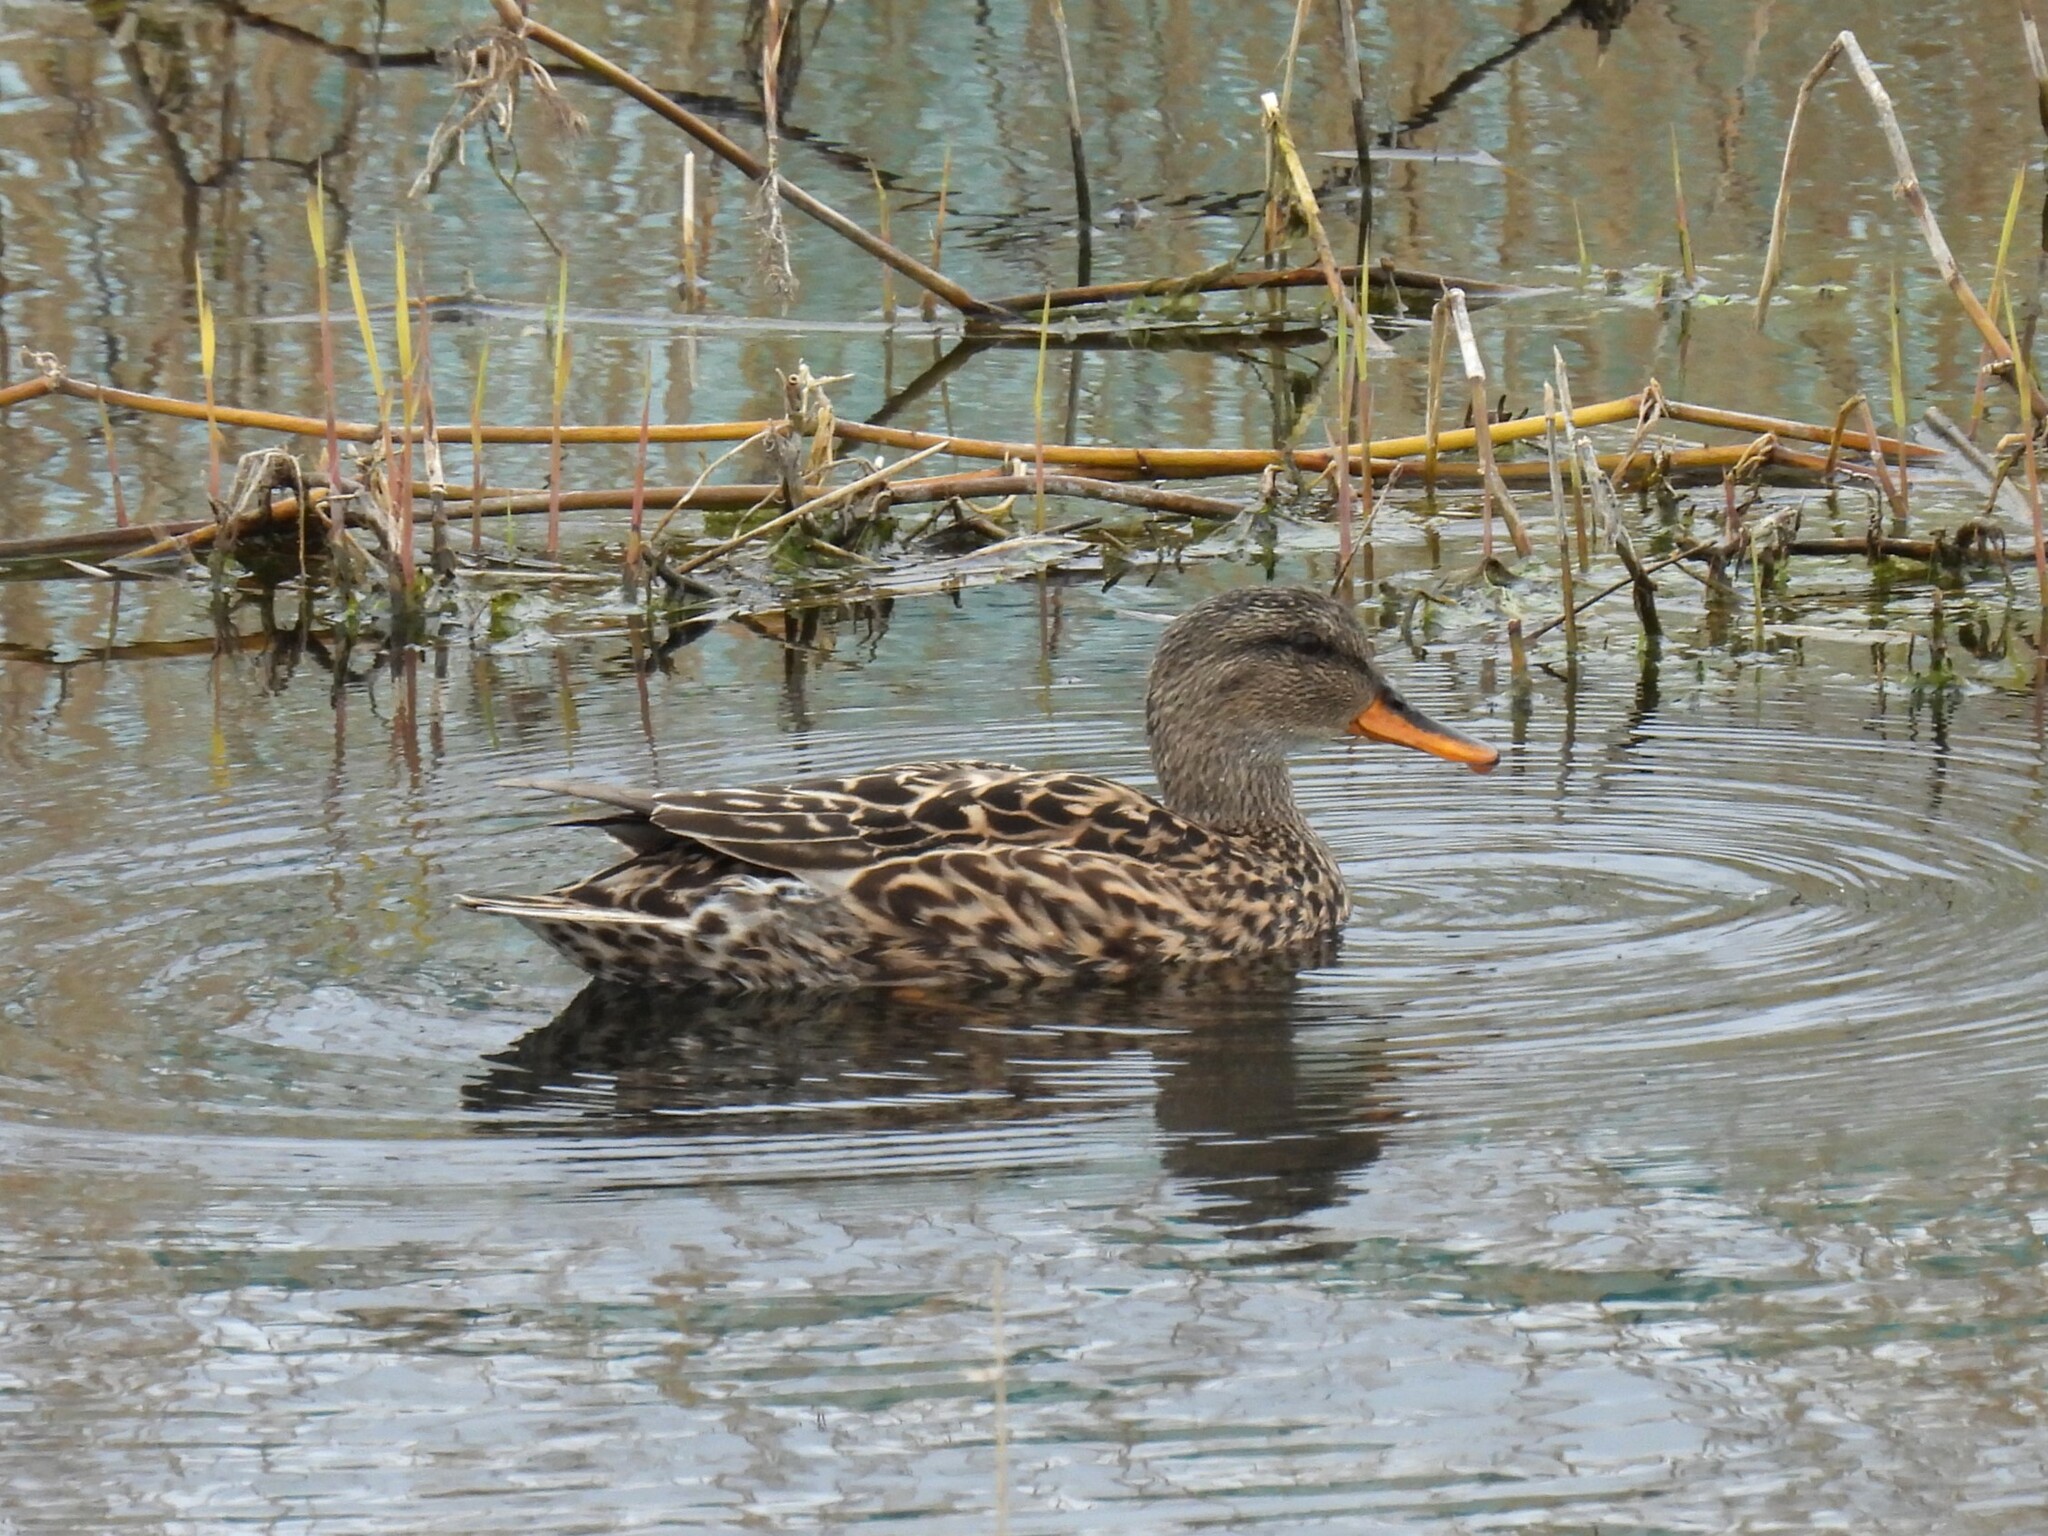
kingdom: Animalia
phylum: Chordata
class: Aves
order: Anseriformes
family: Anatidae
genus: Mareca
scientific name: Mareca strepera
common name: Gadwall
